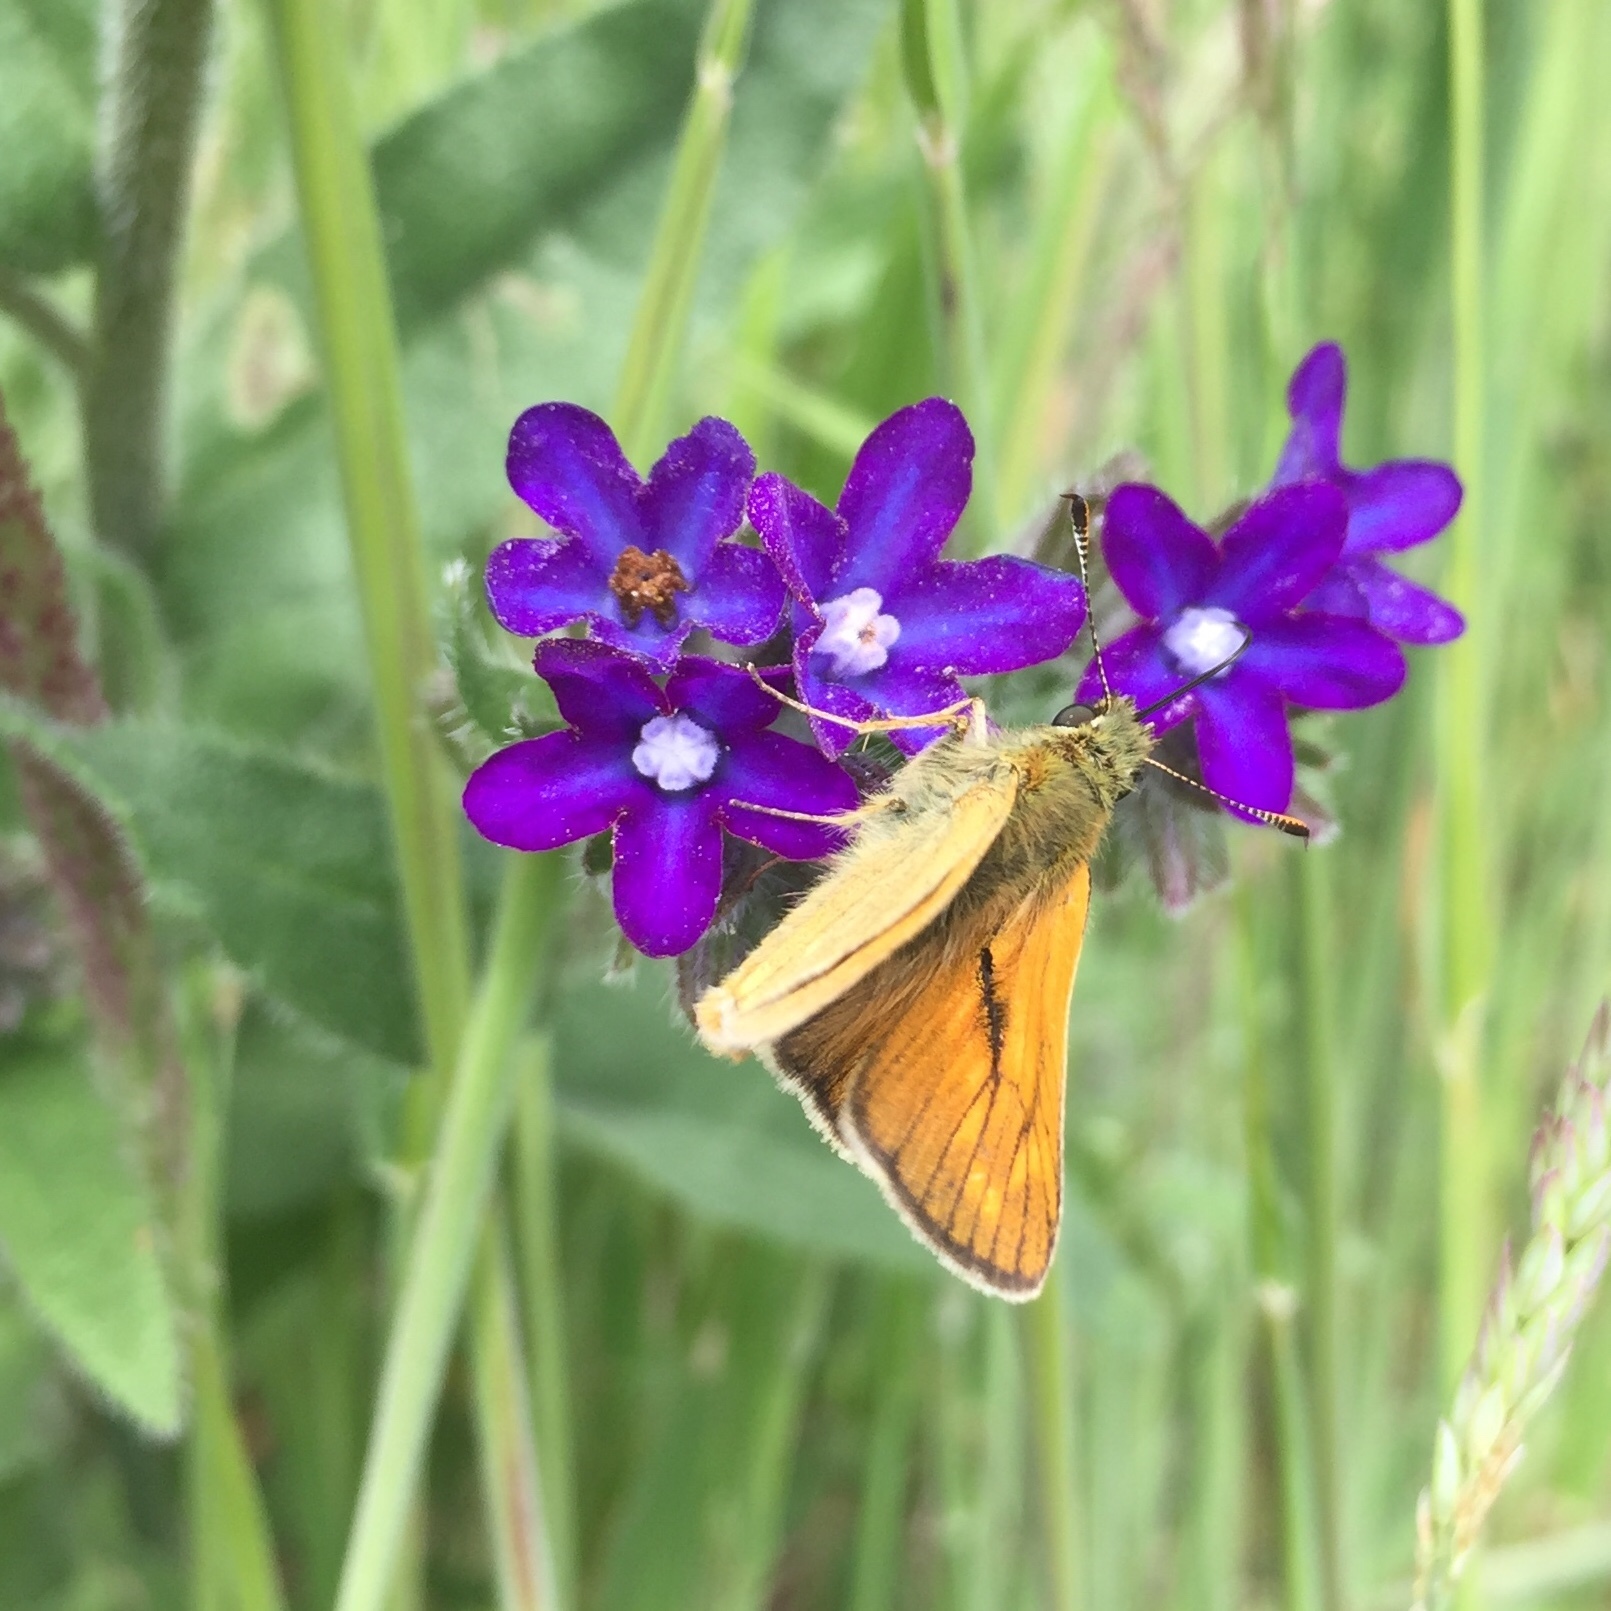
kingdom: Animalia
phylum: Arthropoda
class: Insecta
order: Lepidoptera
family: Hesperiidae
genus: Ochlodes
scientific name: Ochlodes venata
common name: Large skipper
